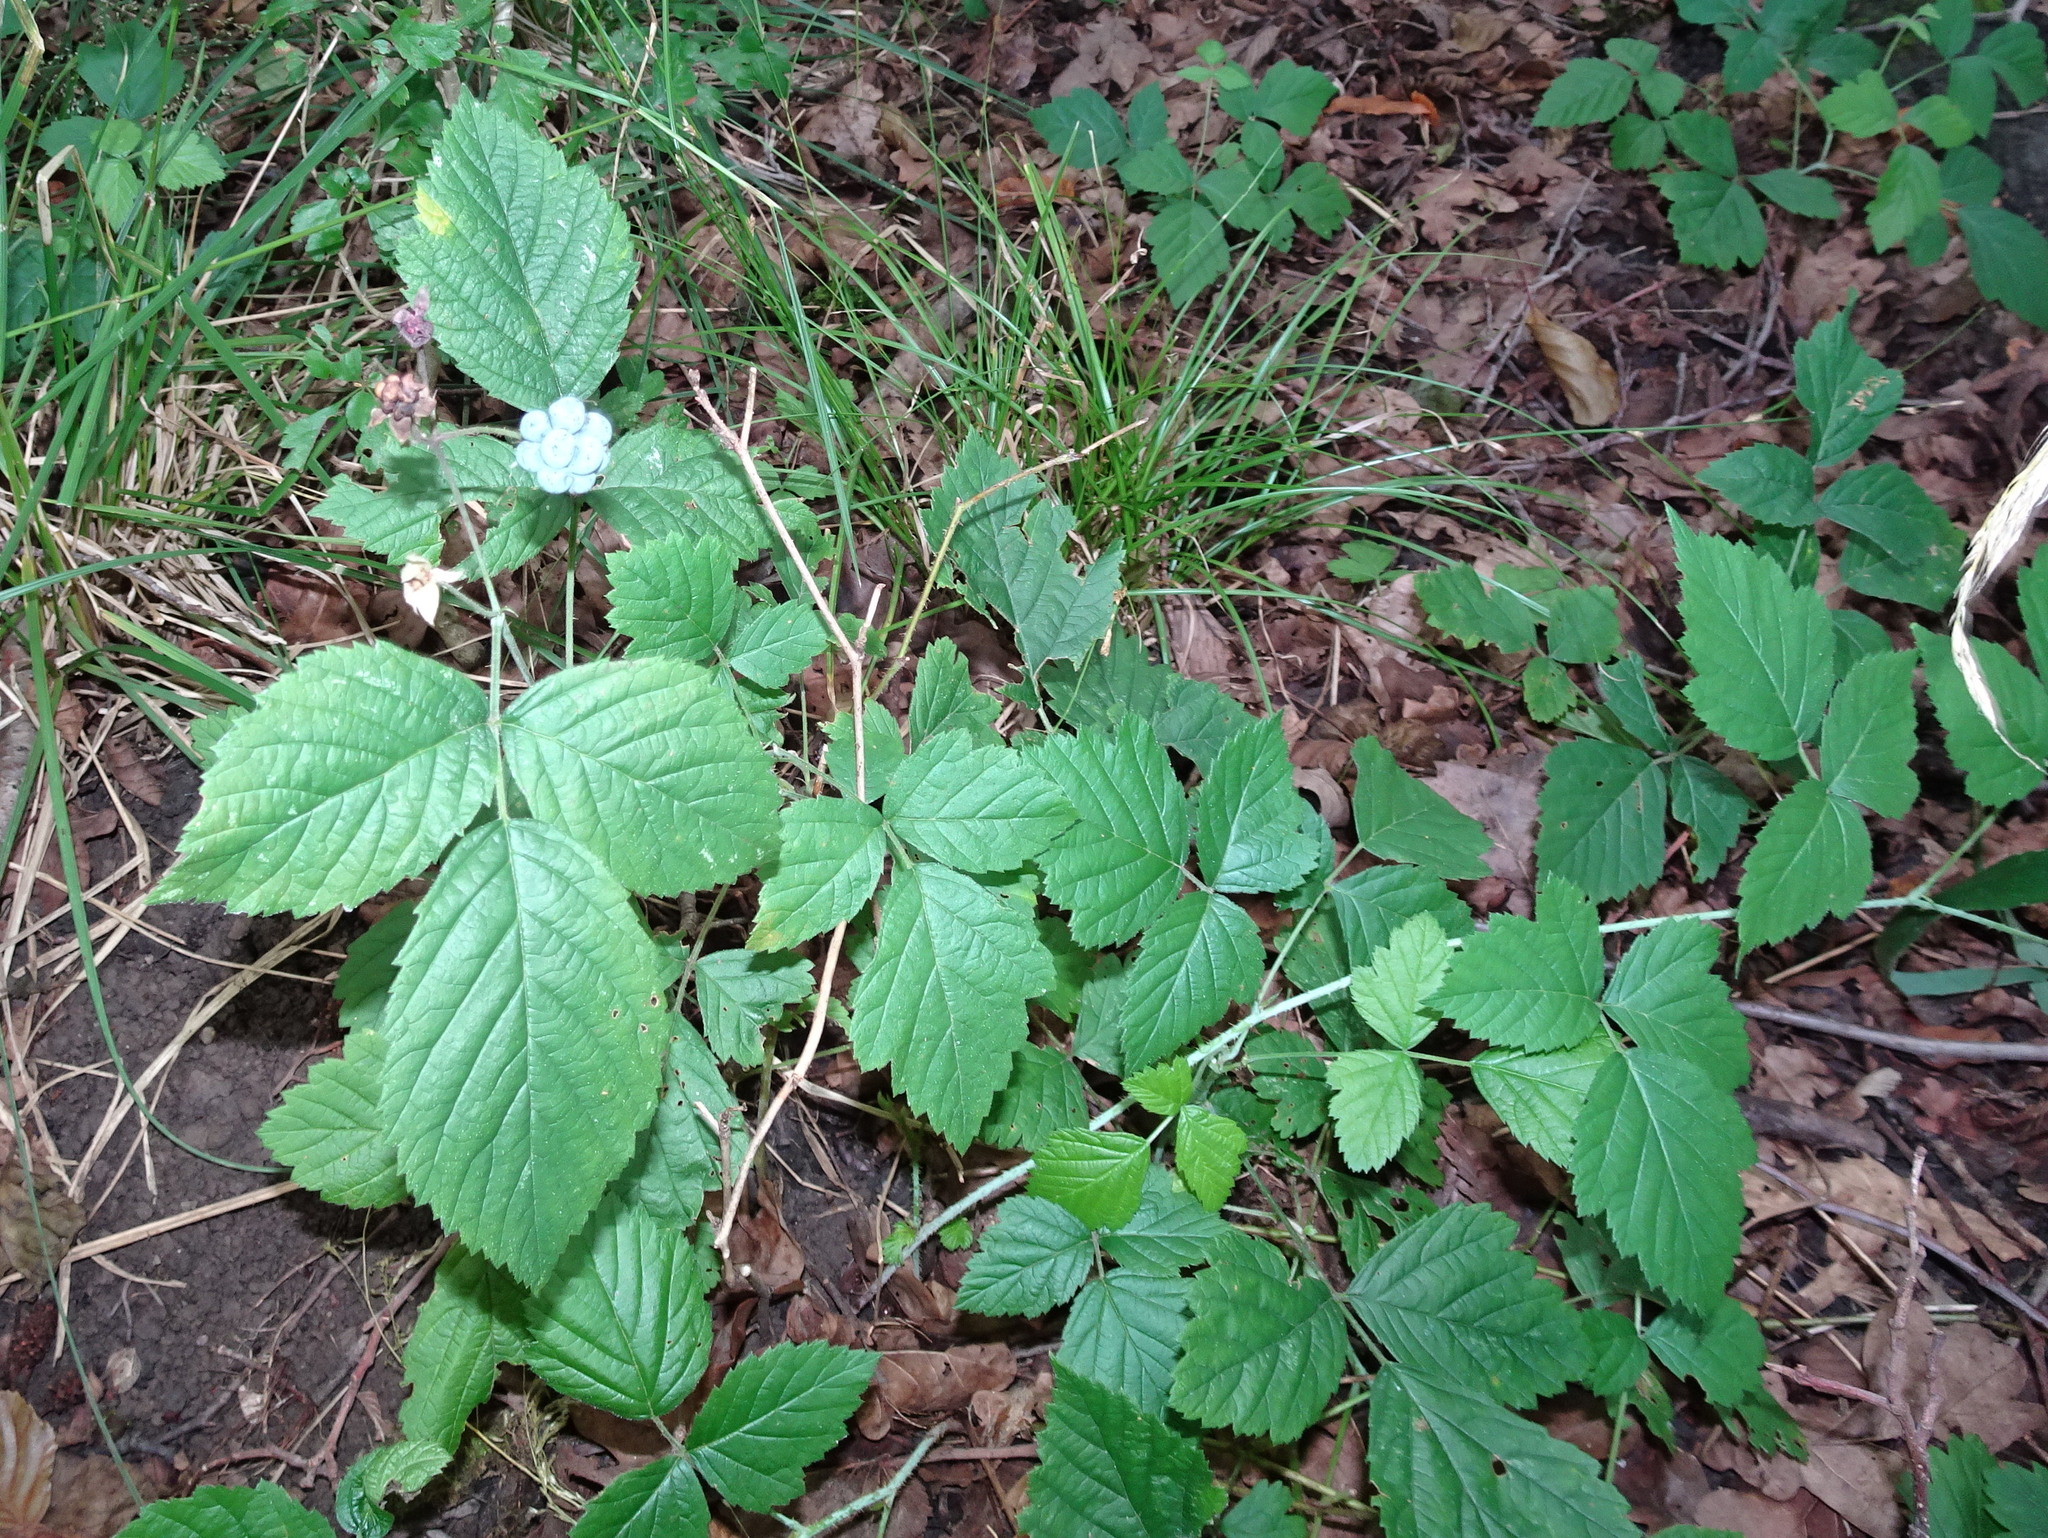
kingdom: Plantae
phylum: Tracheophyta
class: Magnoliopsida
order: Rosales
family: Rosaceae
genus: Rubus
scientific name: Rubus caesius
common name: Dewberry
